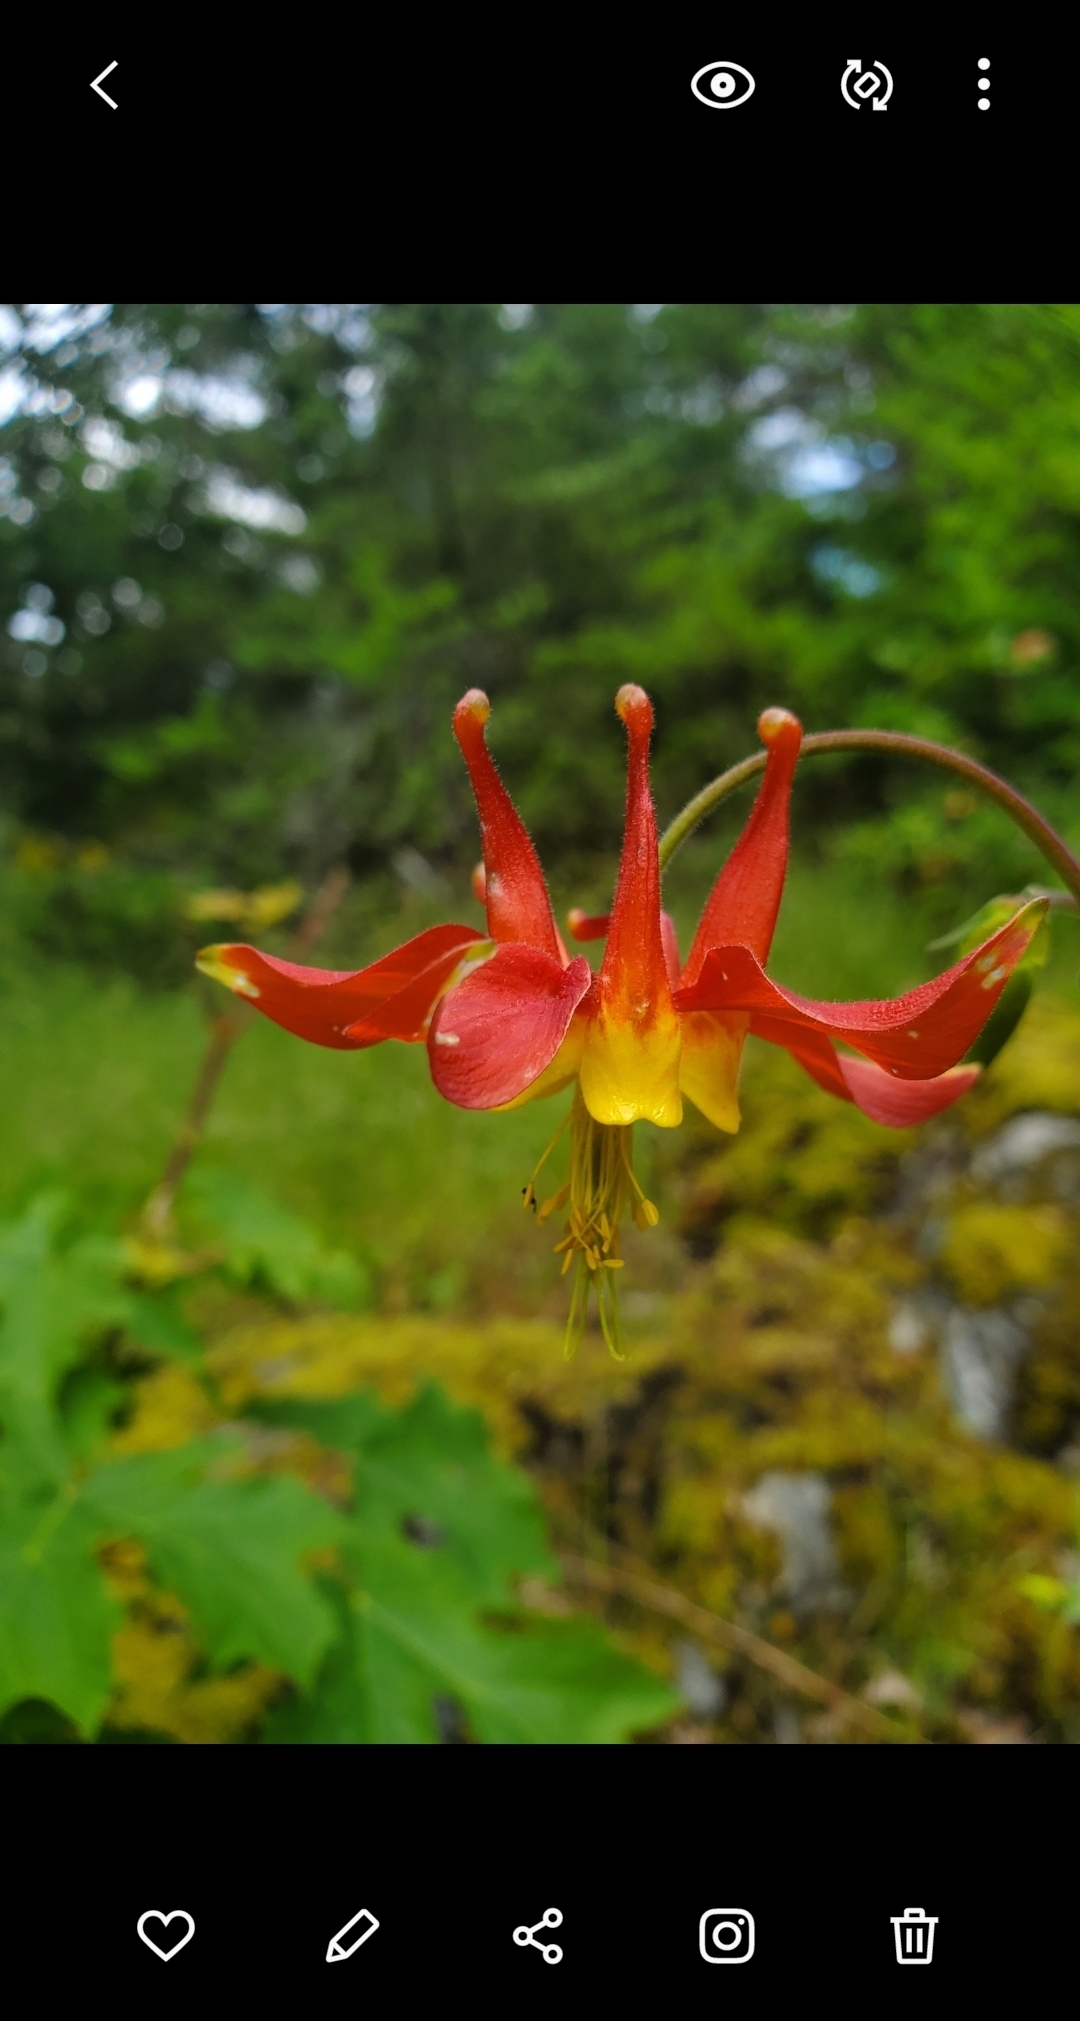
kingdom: Plantae
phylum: Tracheophyta
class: Magnoliopsida
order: Ranunculales
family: Ranunculaceae
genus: Aquilegia
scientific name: Aquilegia formosa
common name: Sitka columbine
